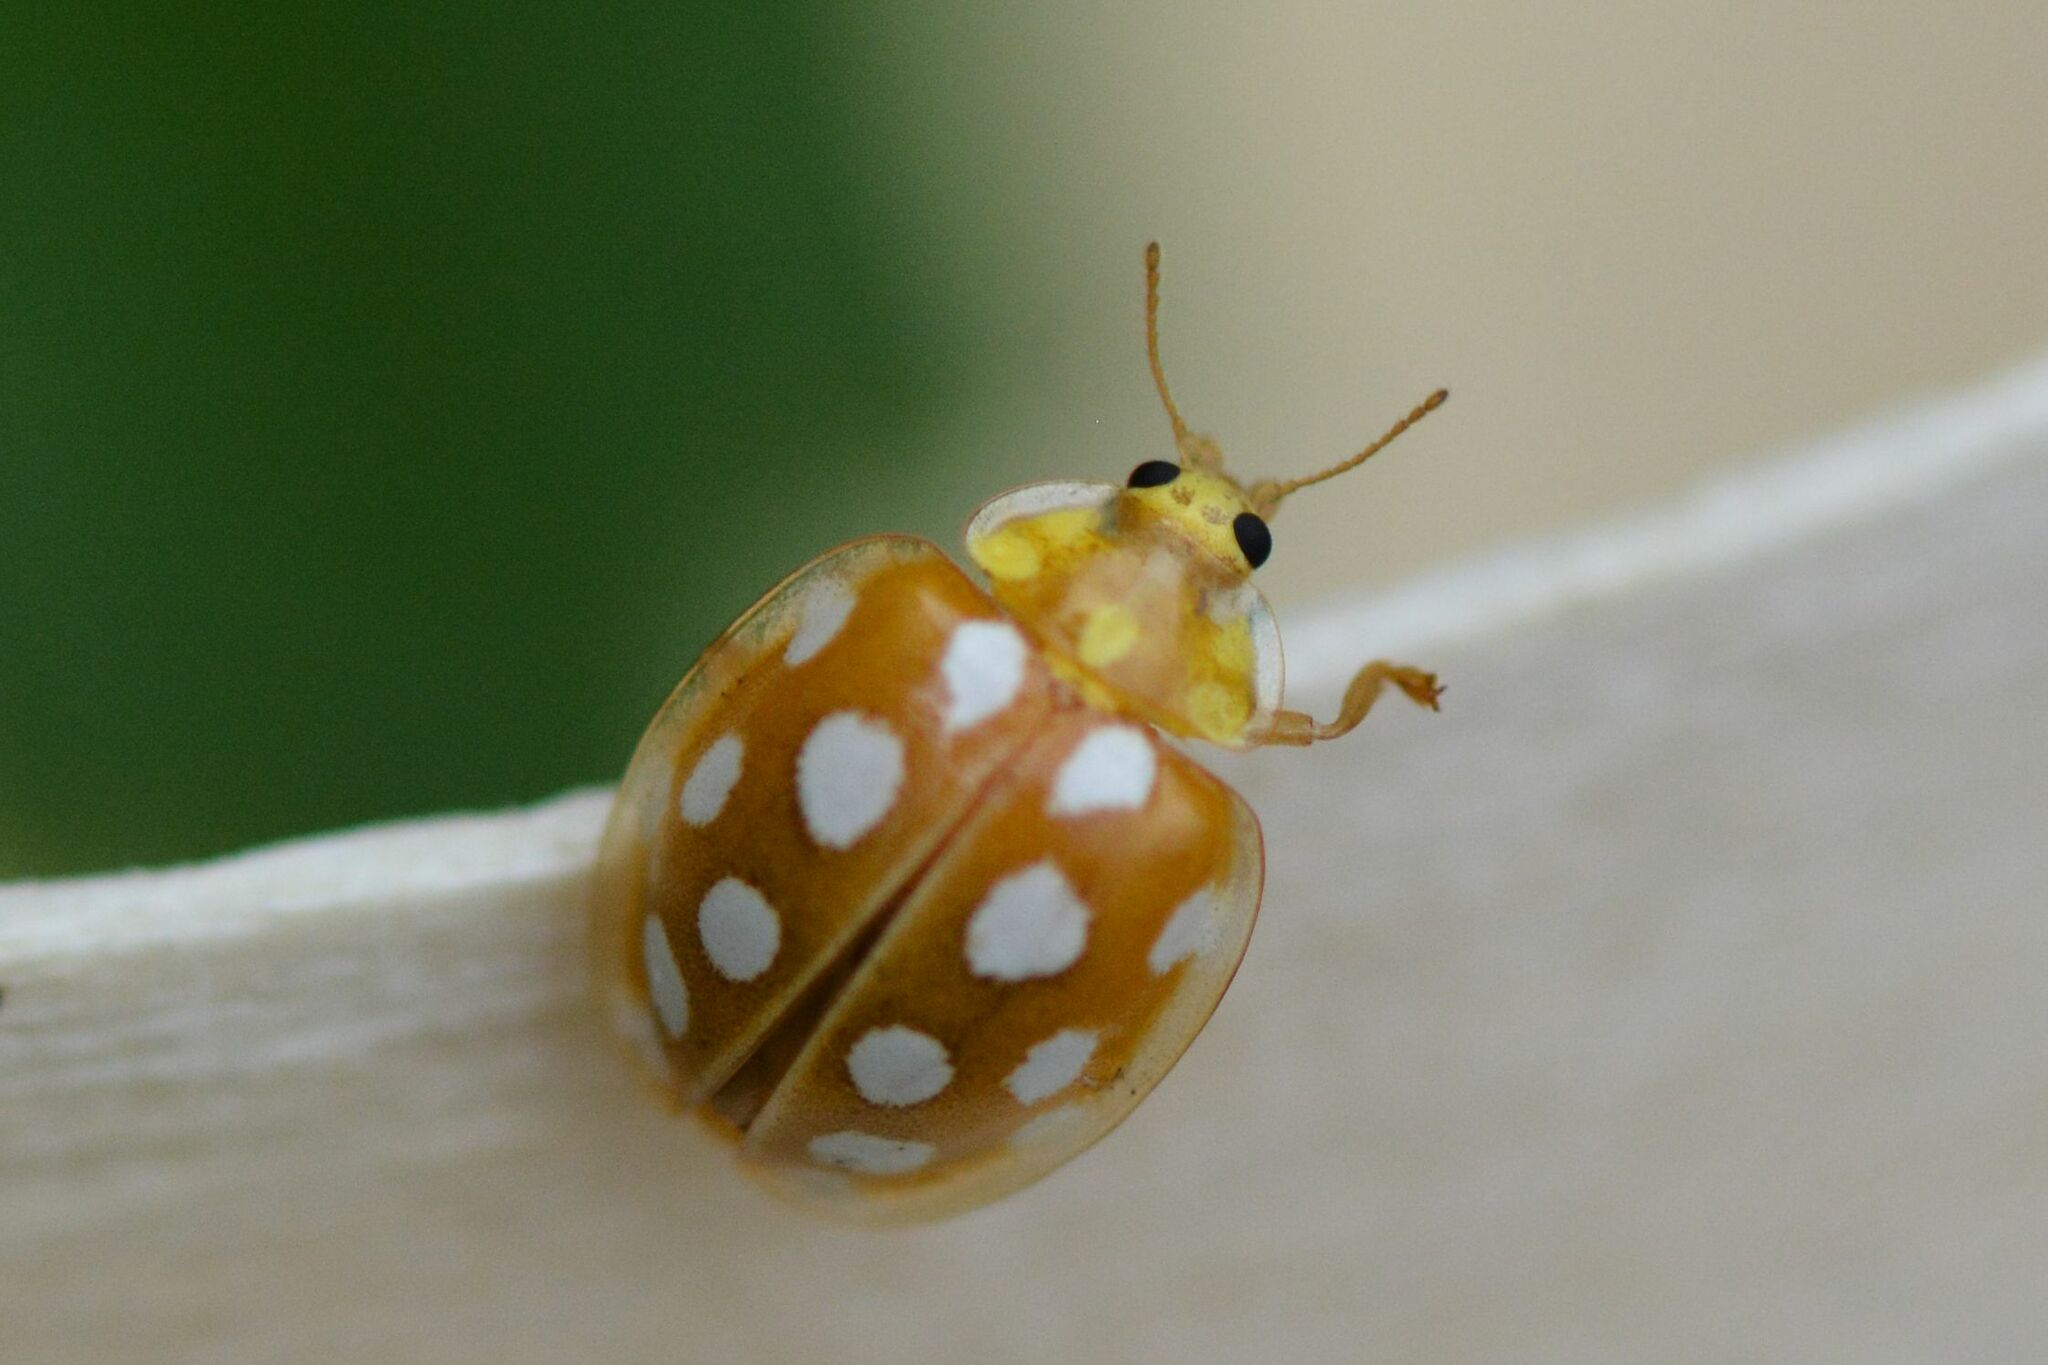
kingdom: Animalia
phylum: Arthropoda
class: Insecta
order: Coleoptera
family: Coccinellidae
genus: Halyzia
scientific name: Halyzia sedecimguttata
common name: Orange ladybird
